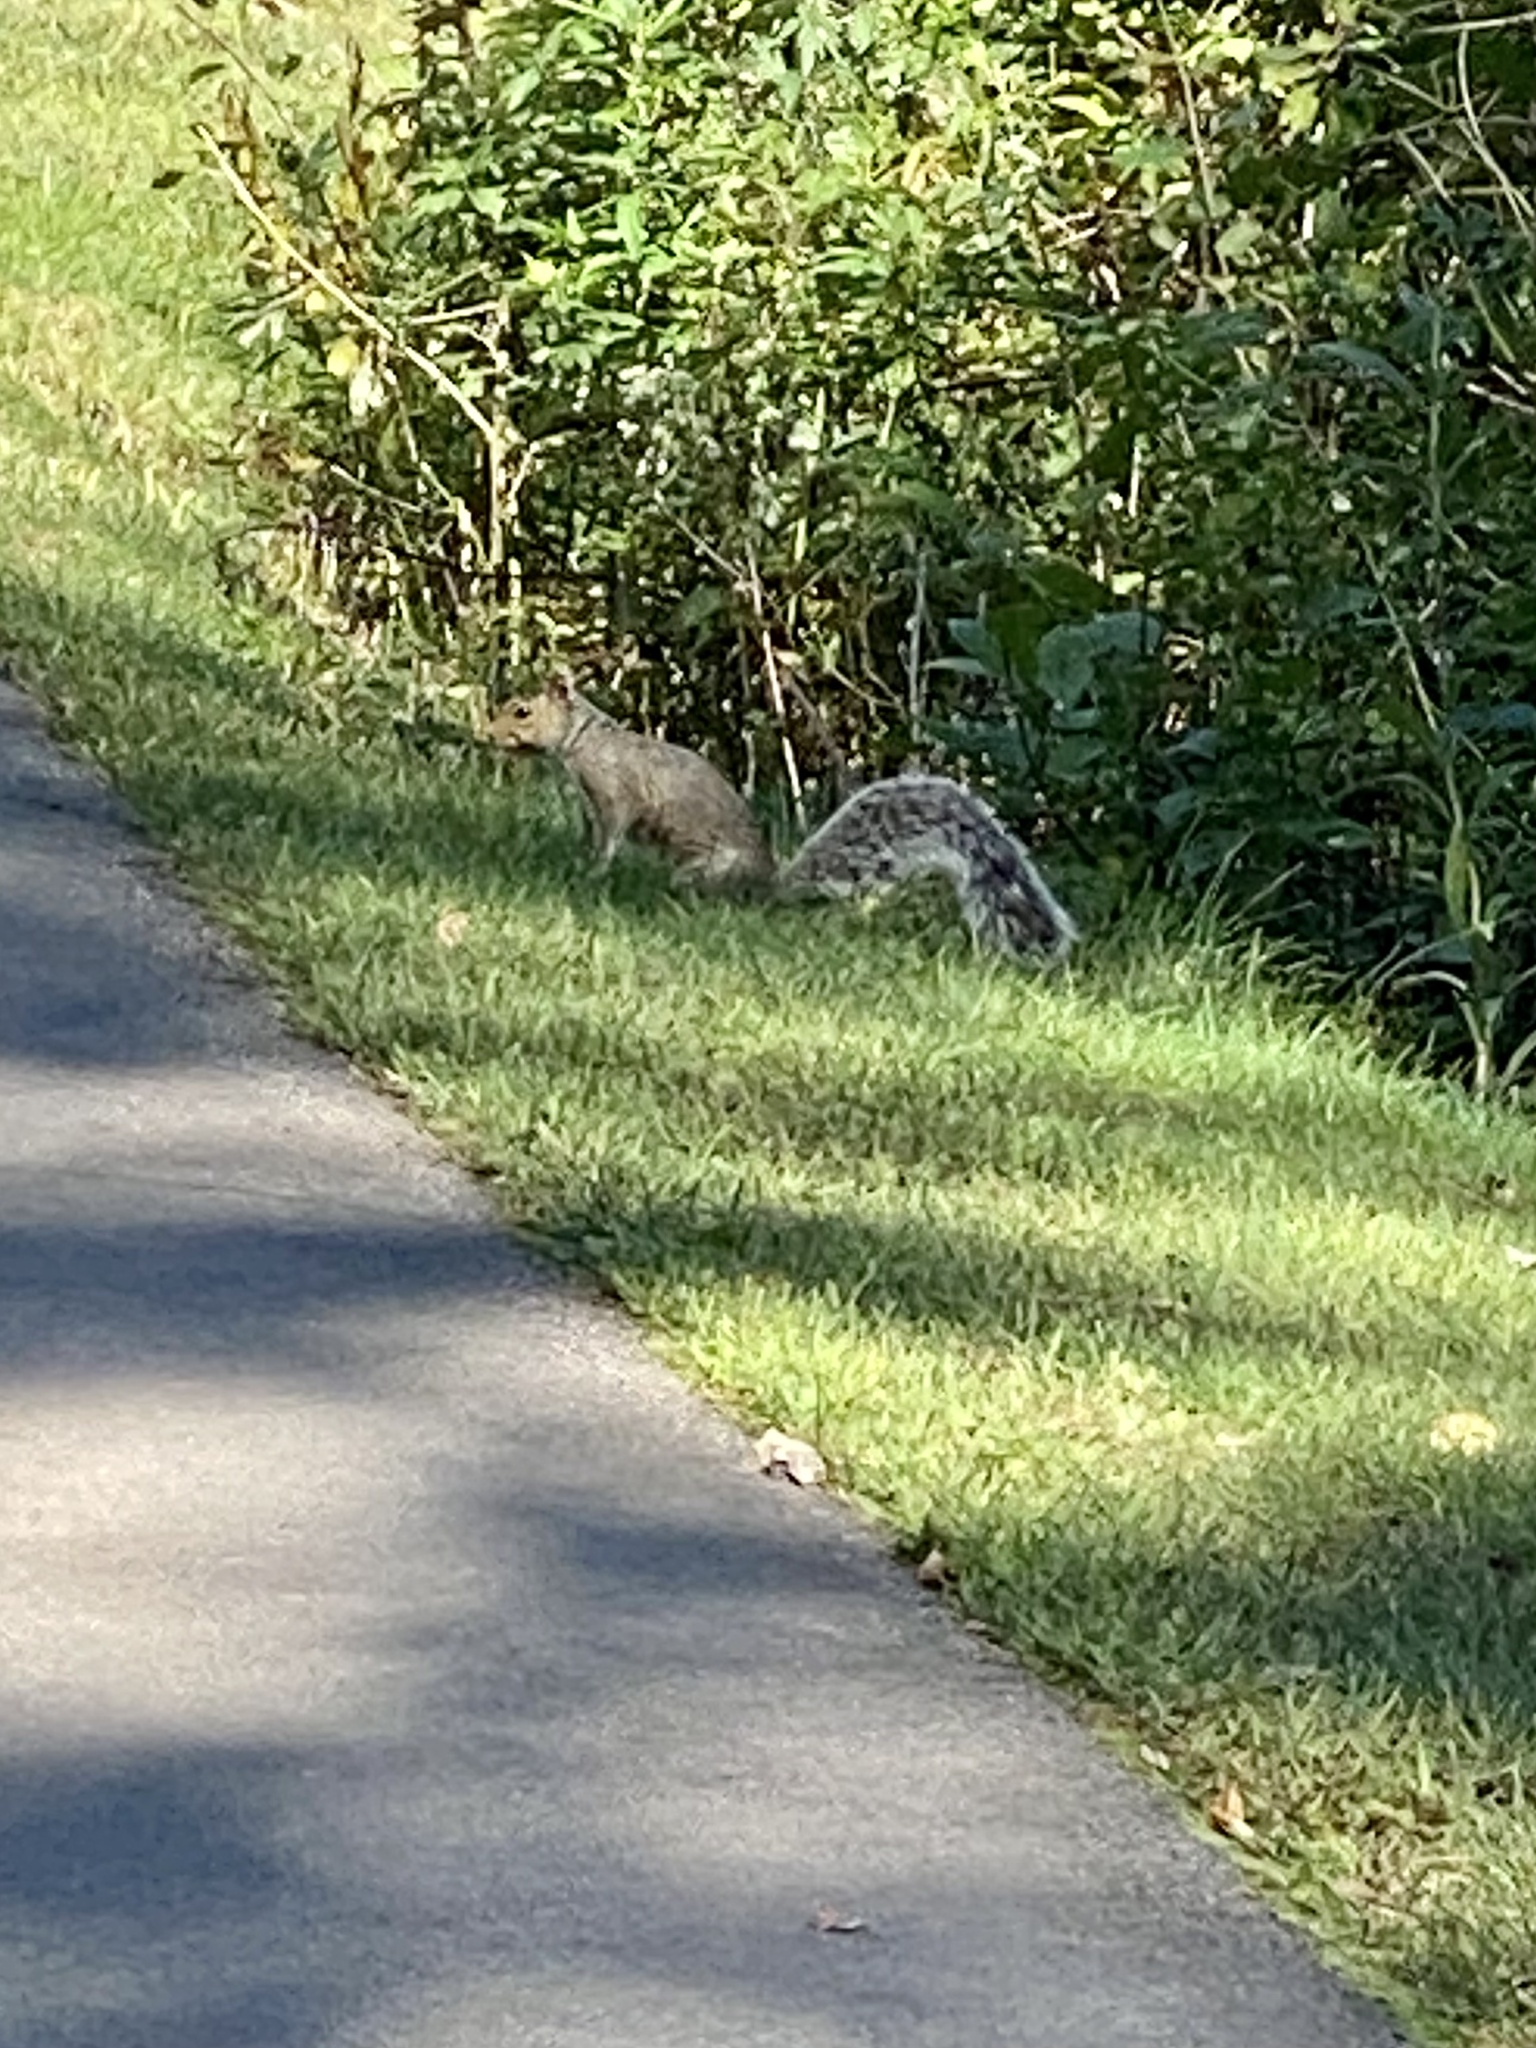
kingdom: Animalia
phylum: Chordata
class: Mammalia
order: Rodentia
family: Sciuridae
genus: Sciurus
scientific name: Sciurus carolinensis
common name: Eastern gray squirrel
